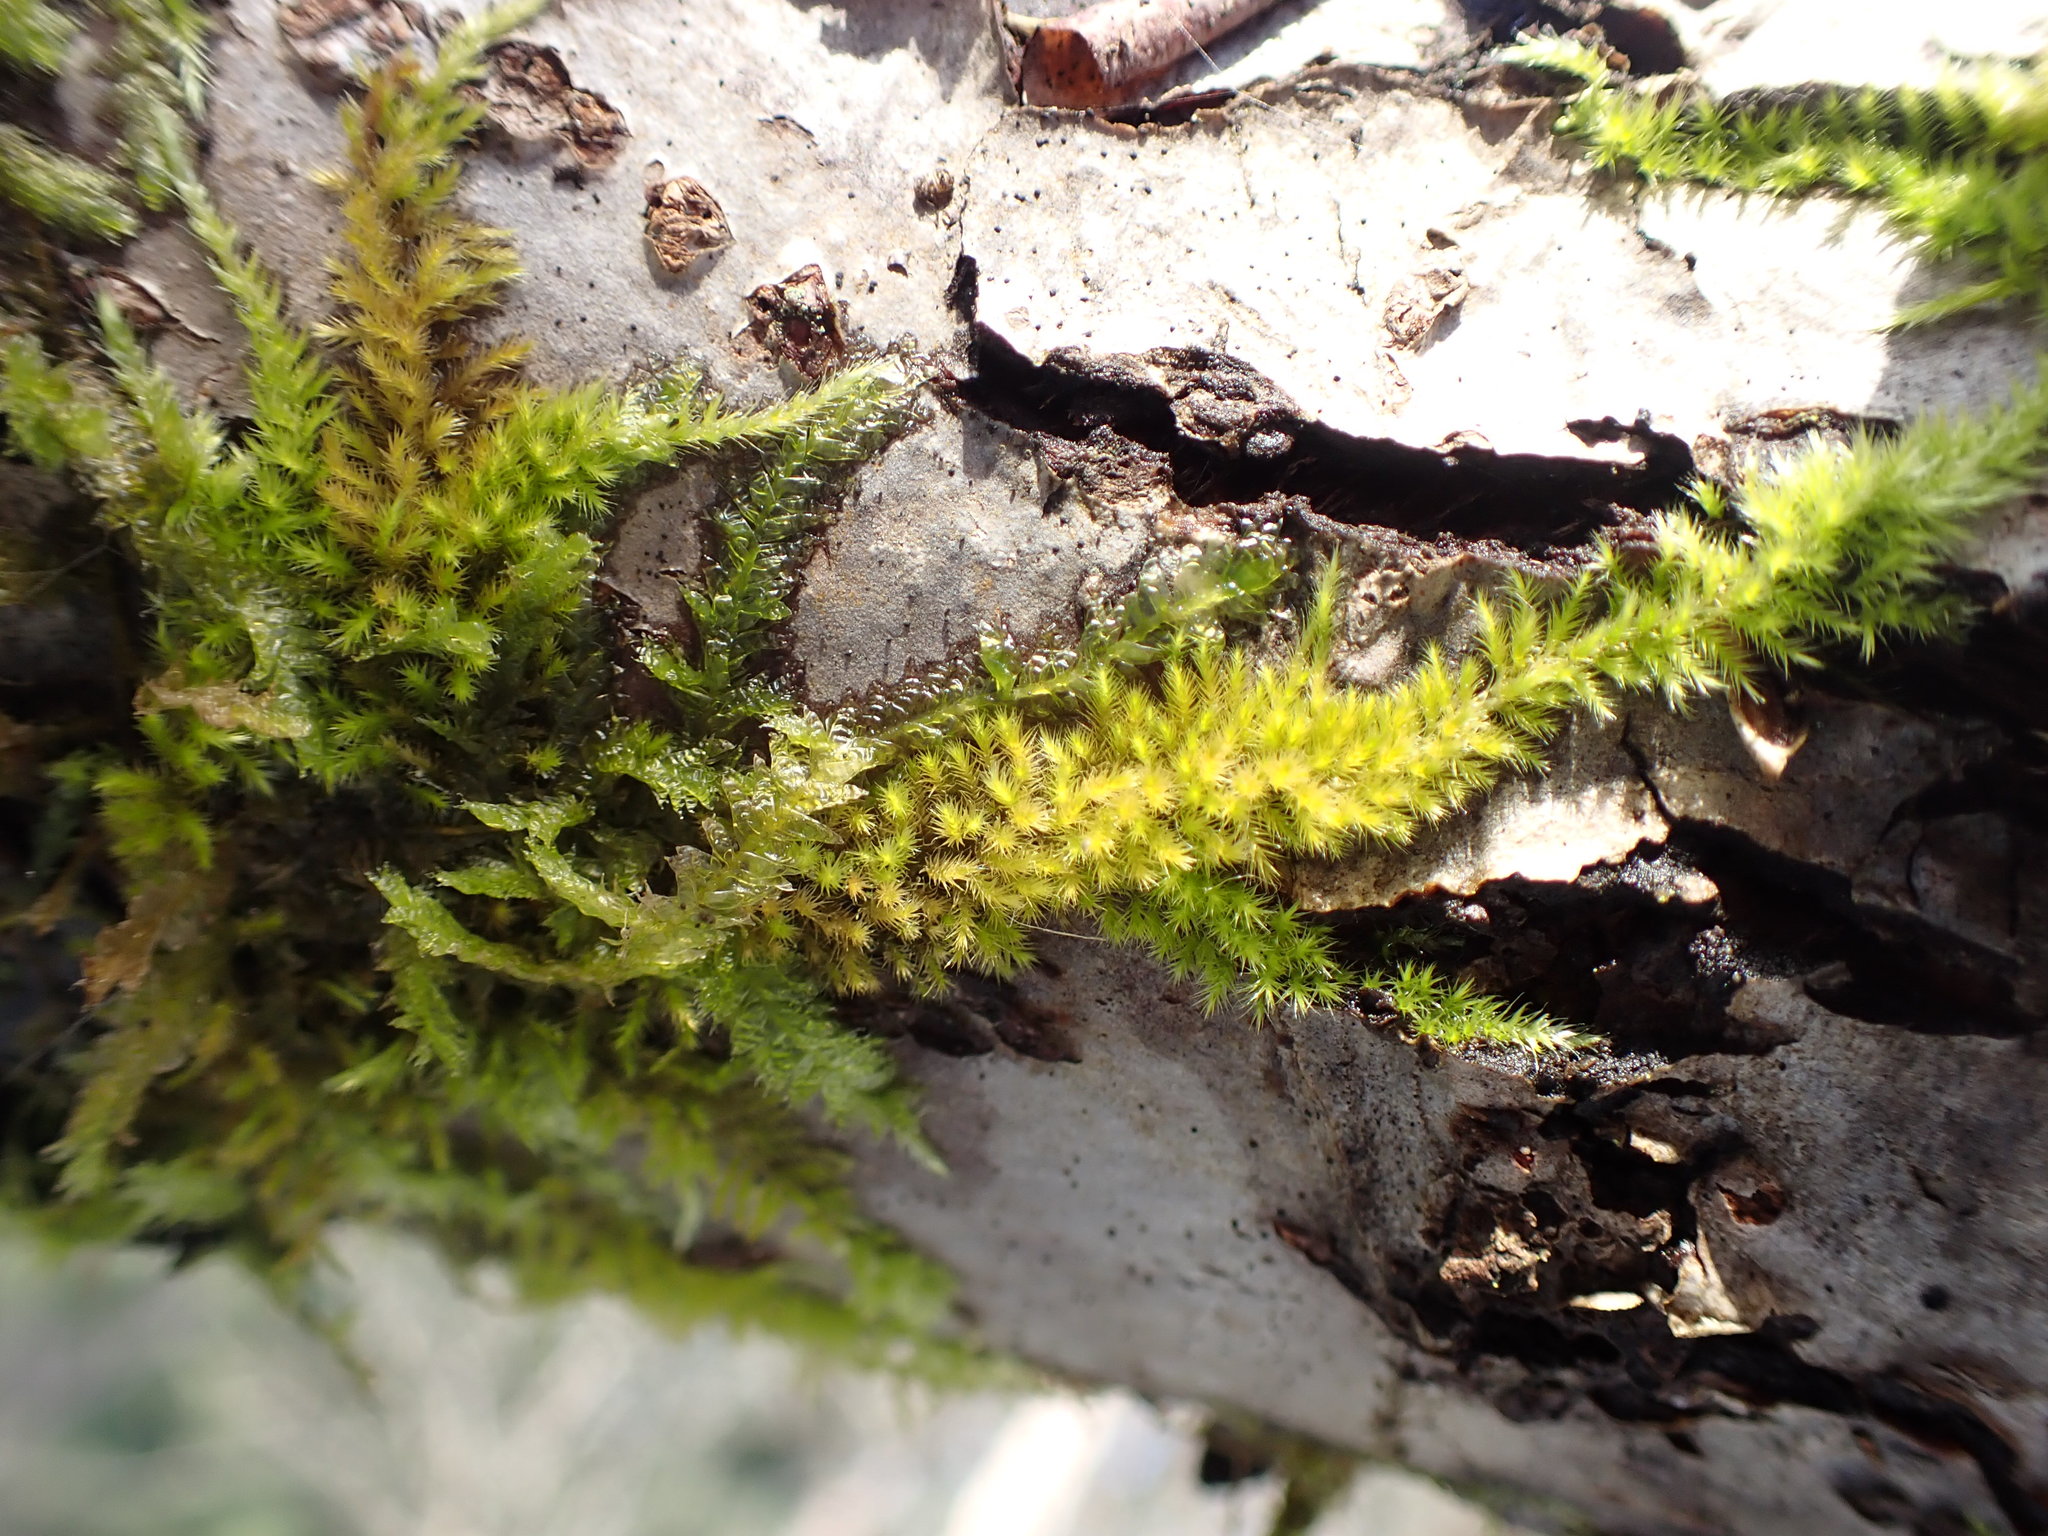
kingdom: Plantae
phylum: Bryophyta
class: Bryopsida
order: Hypnales
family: Brachytheciaceae
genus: Homalothecium
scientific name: Homalothecium nuttallii
